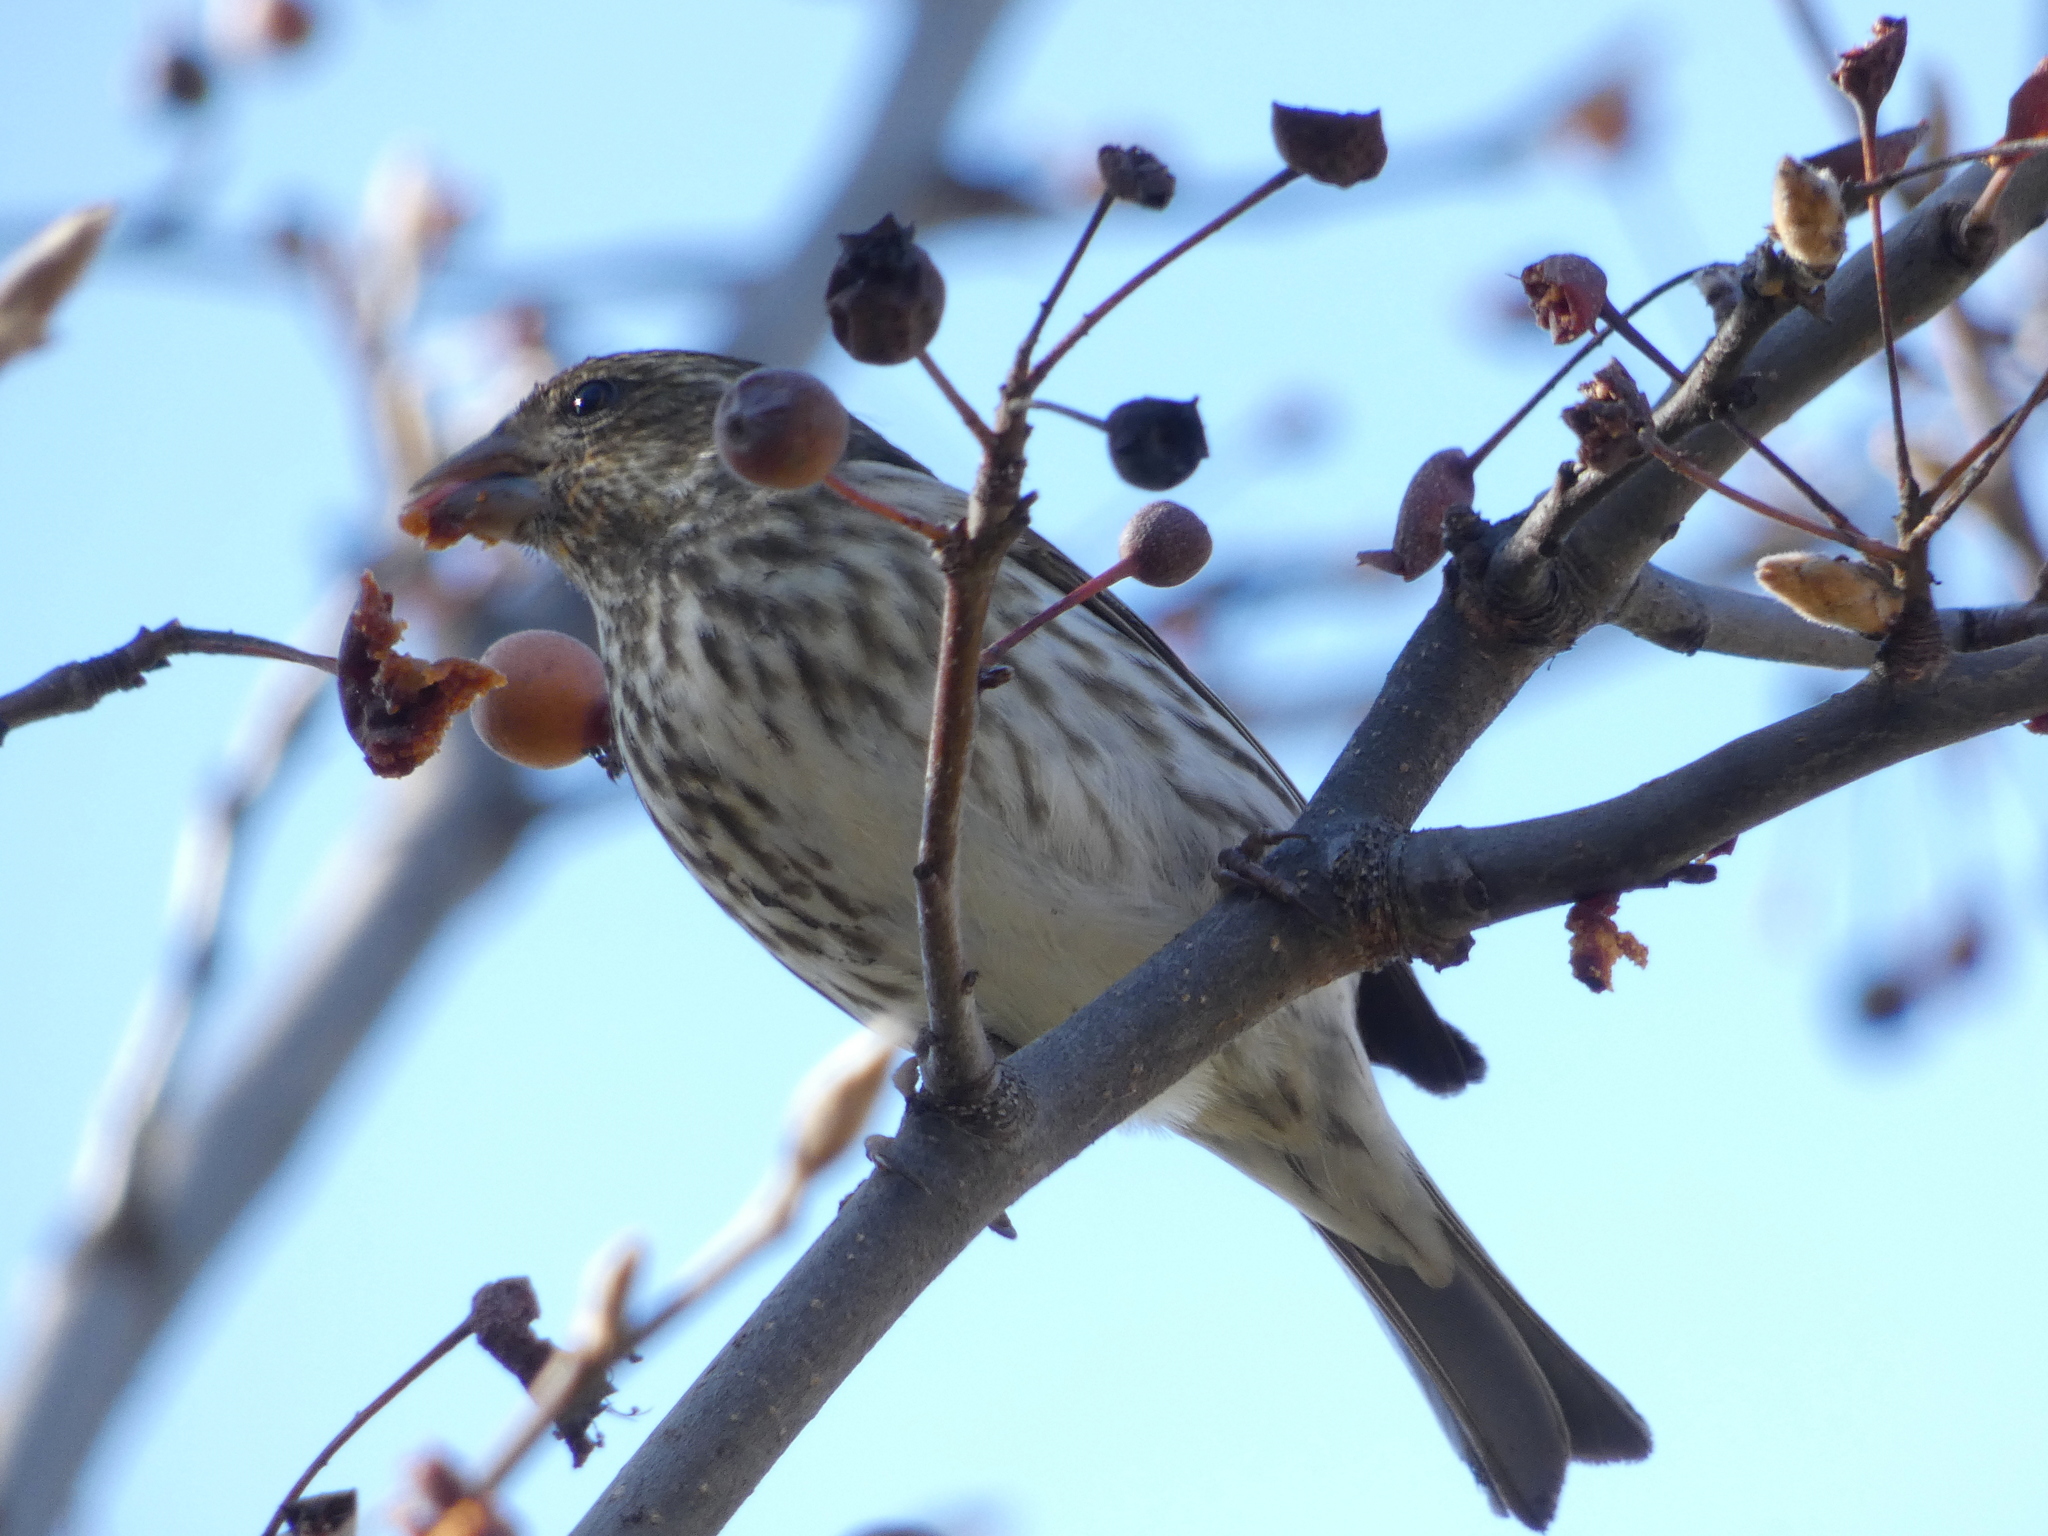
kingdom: Animalia
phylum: Chordata
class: Aves
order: Passeriformes
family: Fringillidae
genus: Haemorhous
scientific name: Haemorhous purpureus
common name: Purple finch
